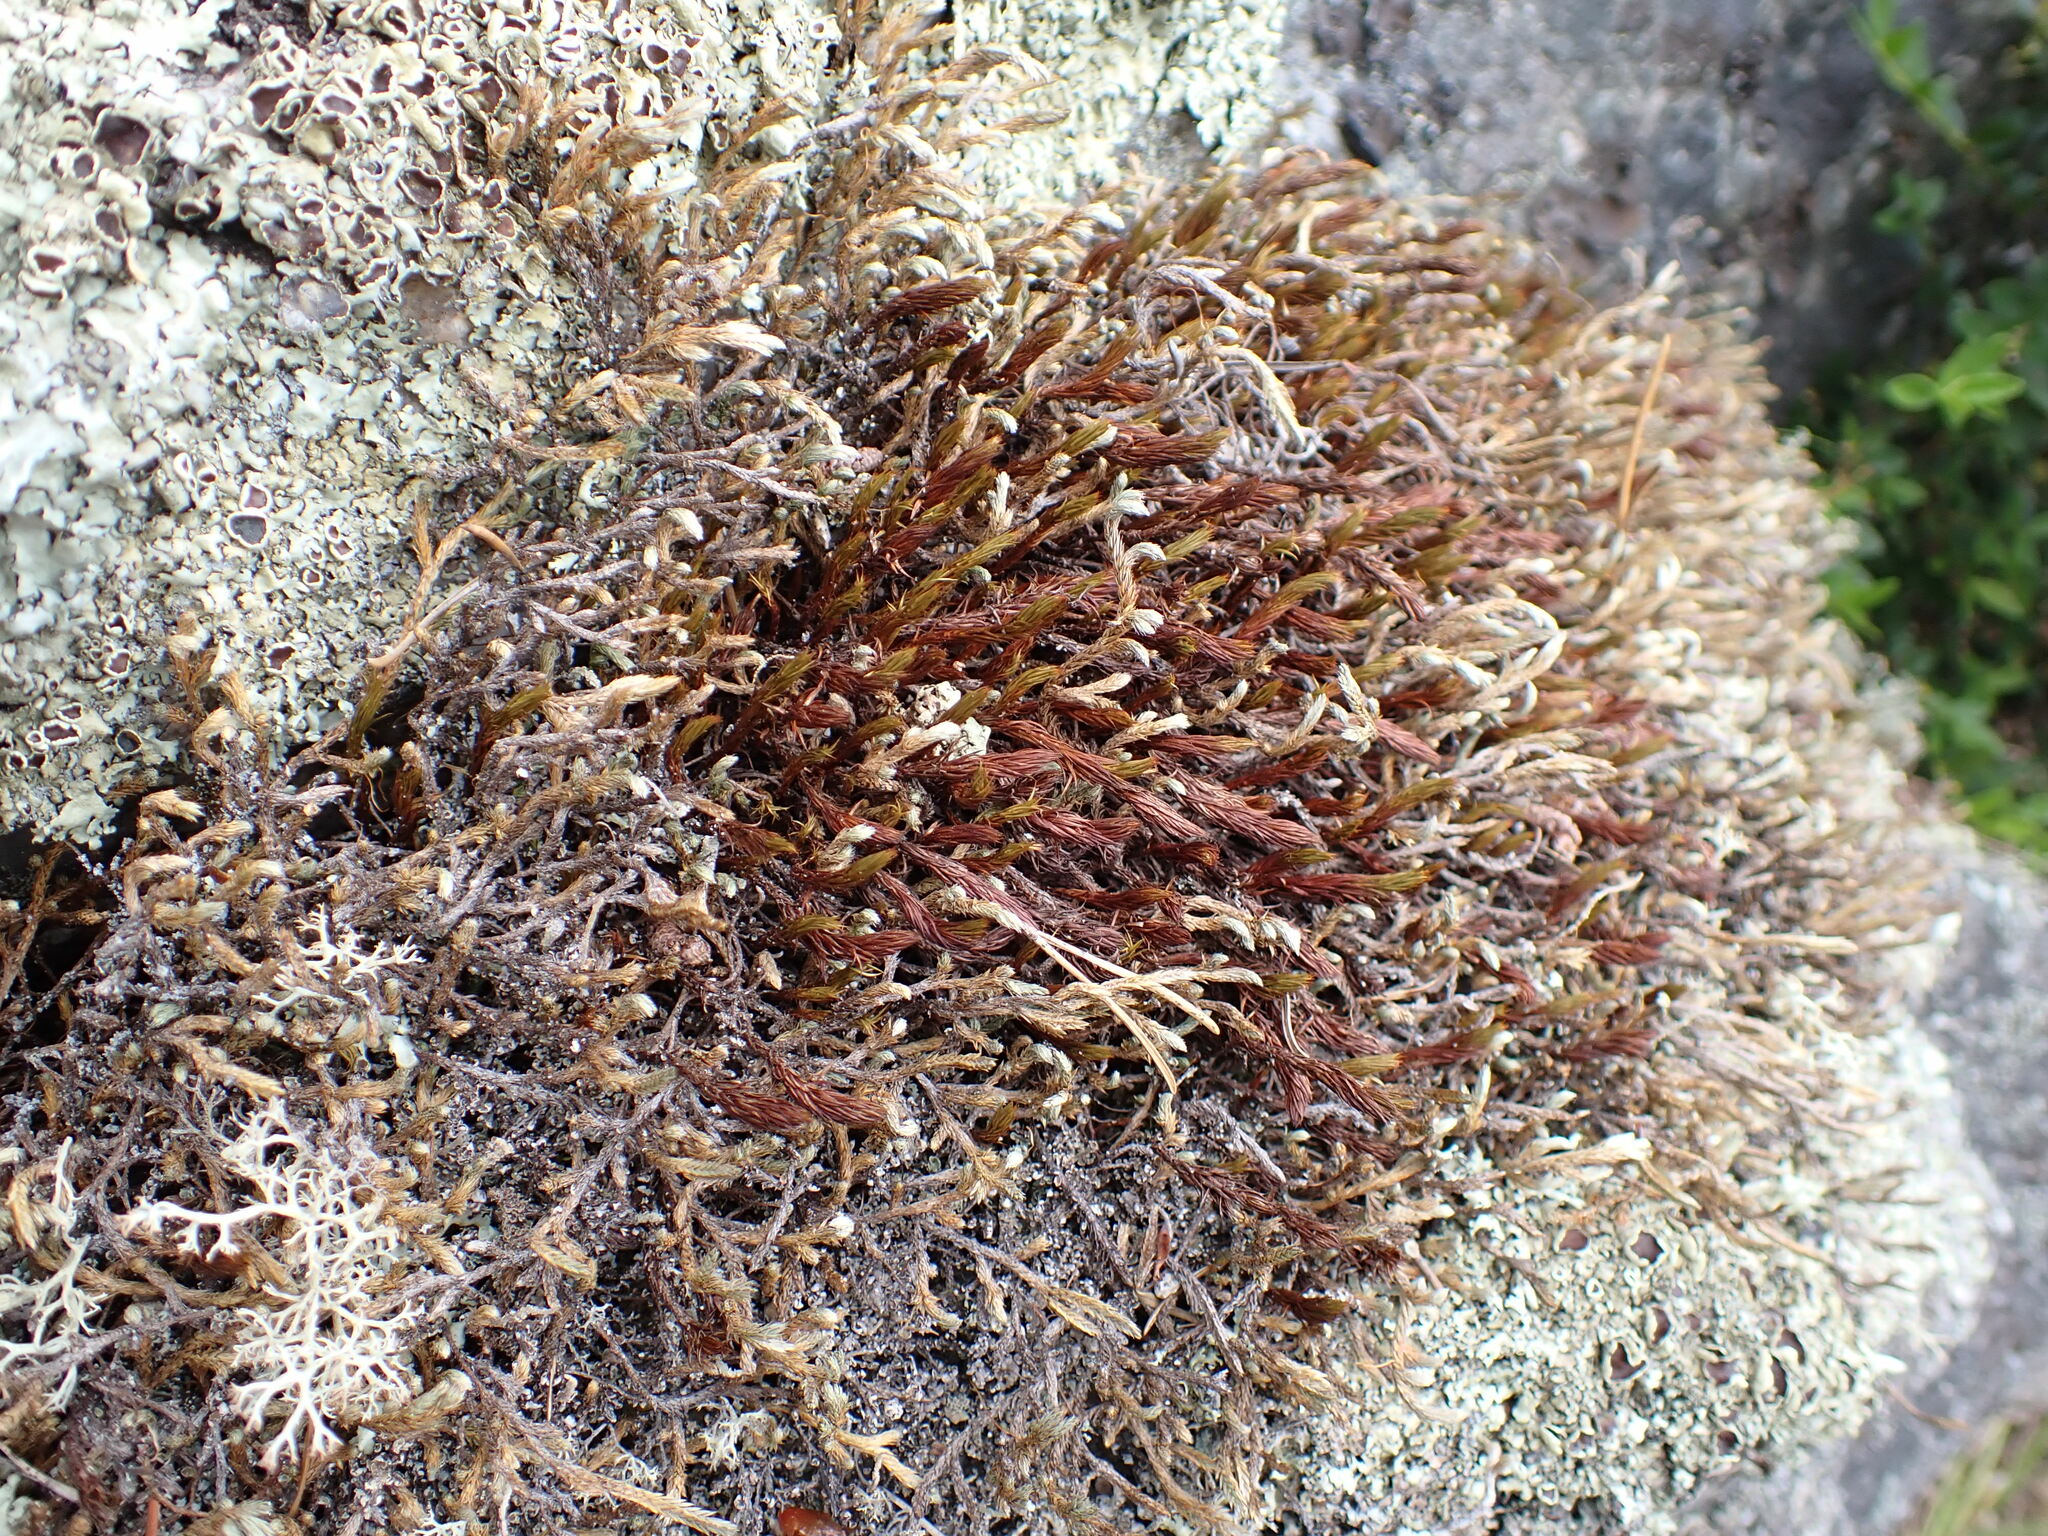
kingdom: Plantae
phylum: Tracheophyta
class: Lycopodiopsida
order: Selaginellales
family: Selaginellaceae
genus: Selaginella
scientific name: Selaginella wallacei
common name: Wallace's selaginella
